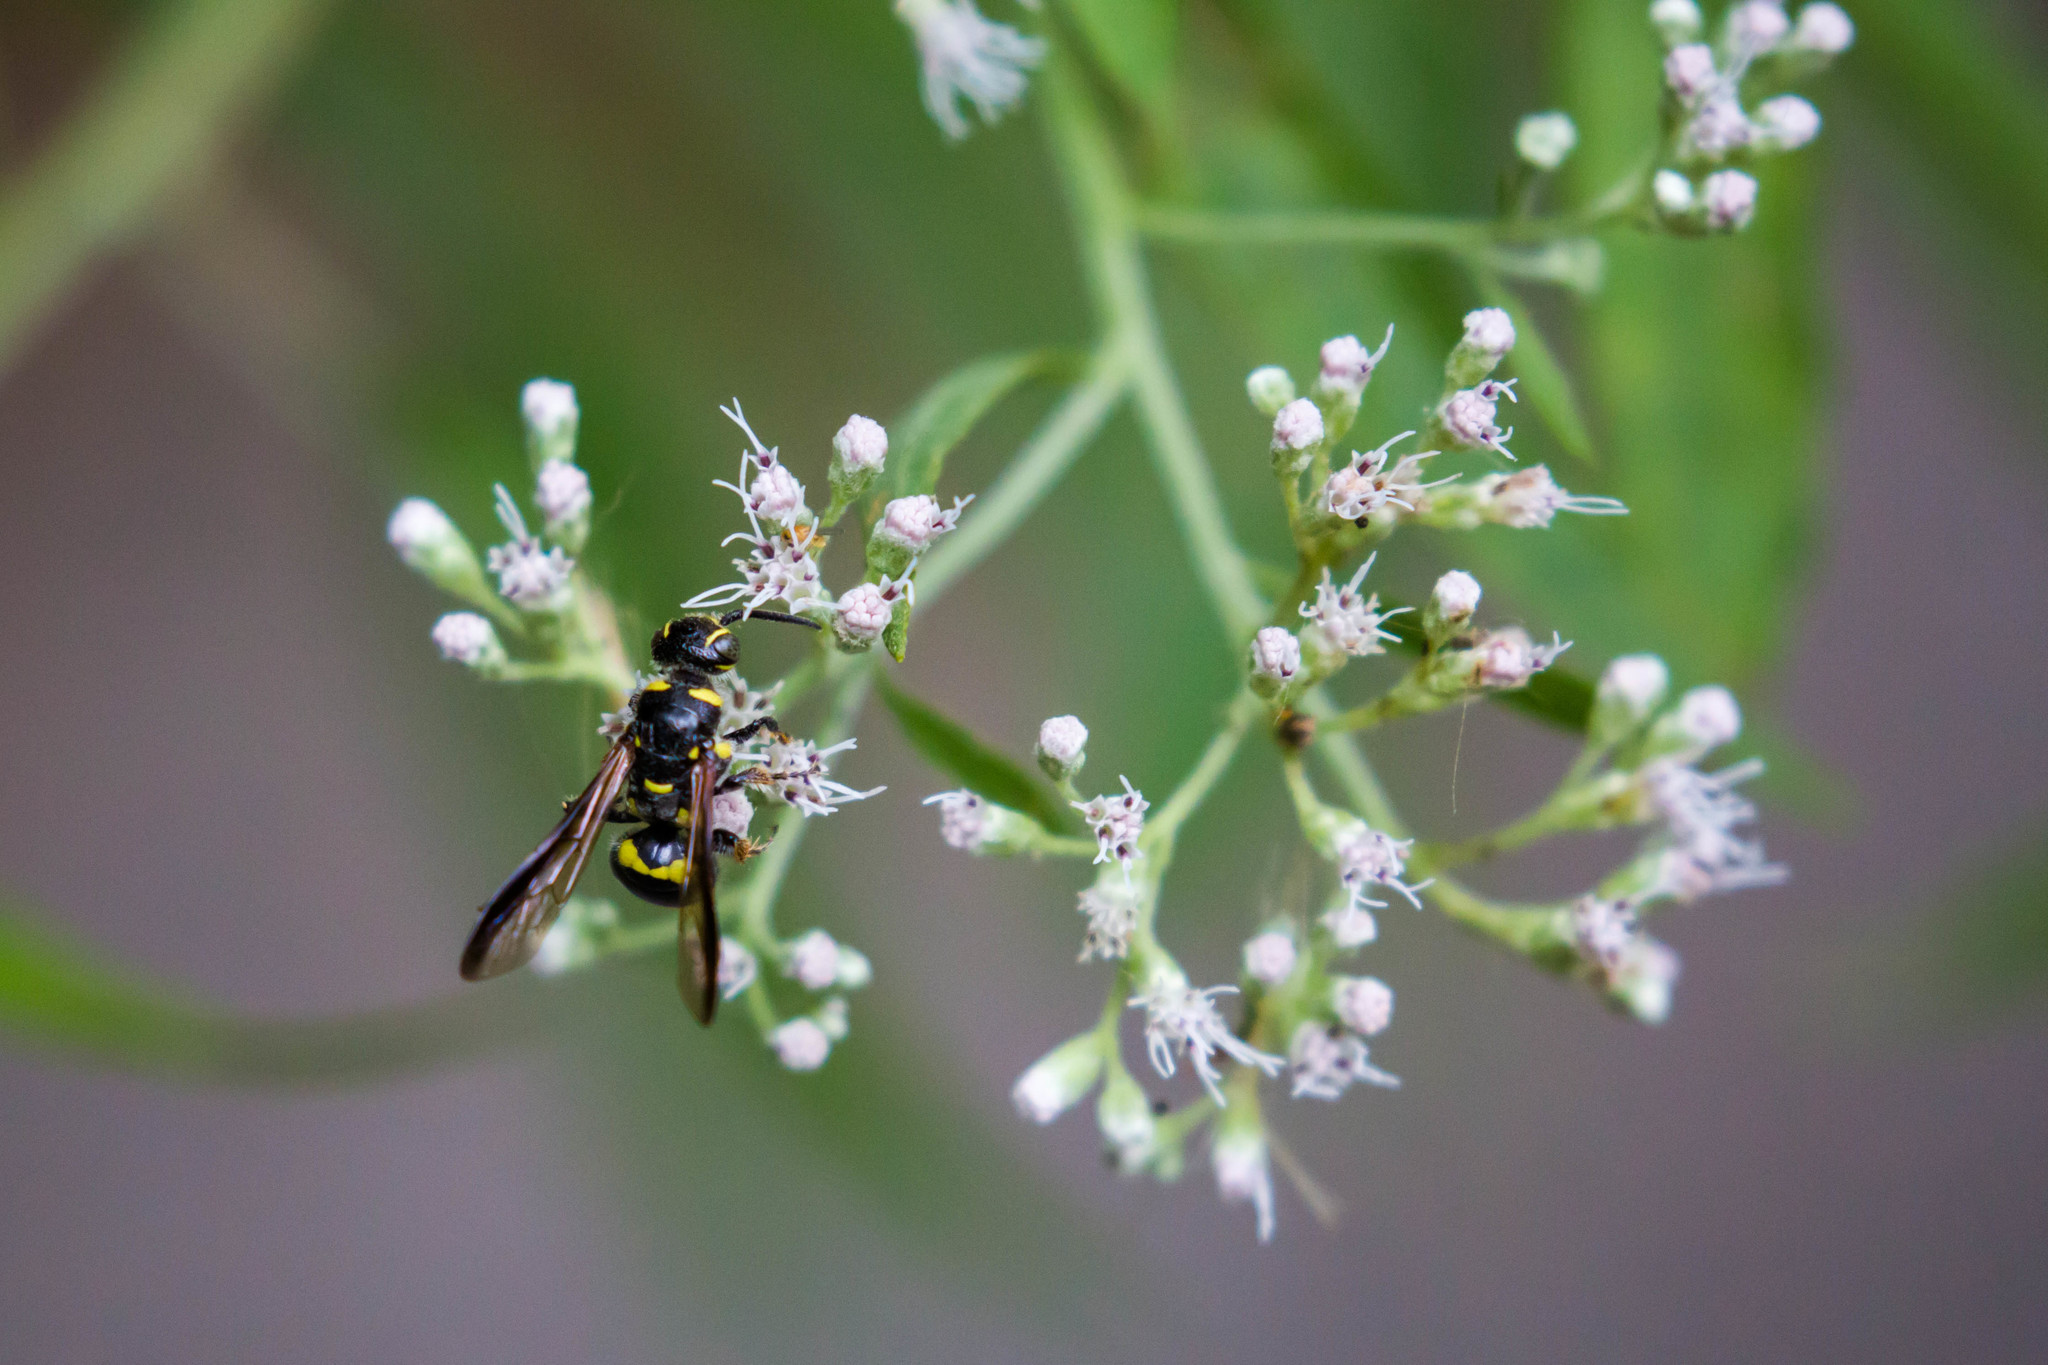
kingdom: Animalia
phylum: Arthropoda
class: Insecta
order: Hymenoptera
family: Tiphiidae
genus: Myzinum
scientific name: Myzinum
